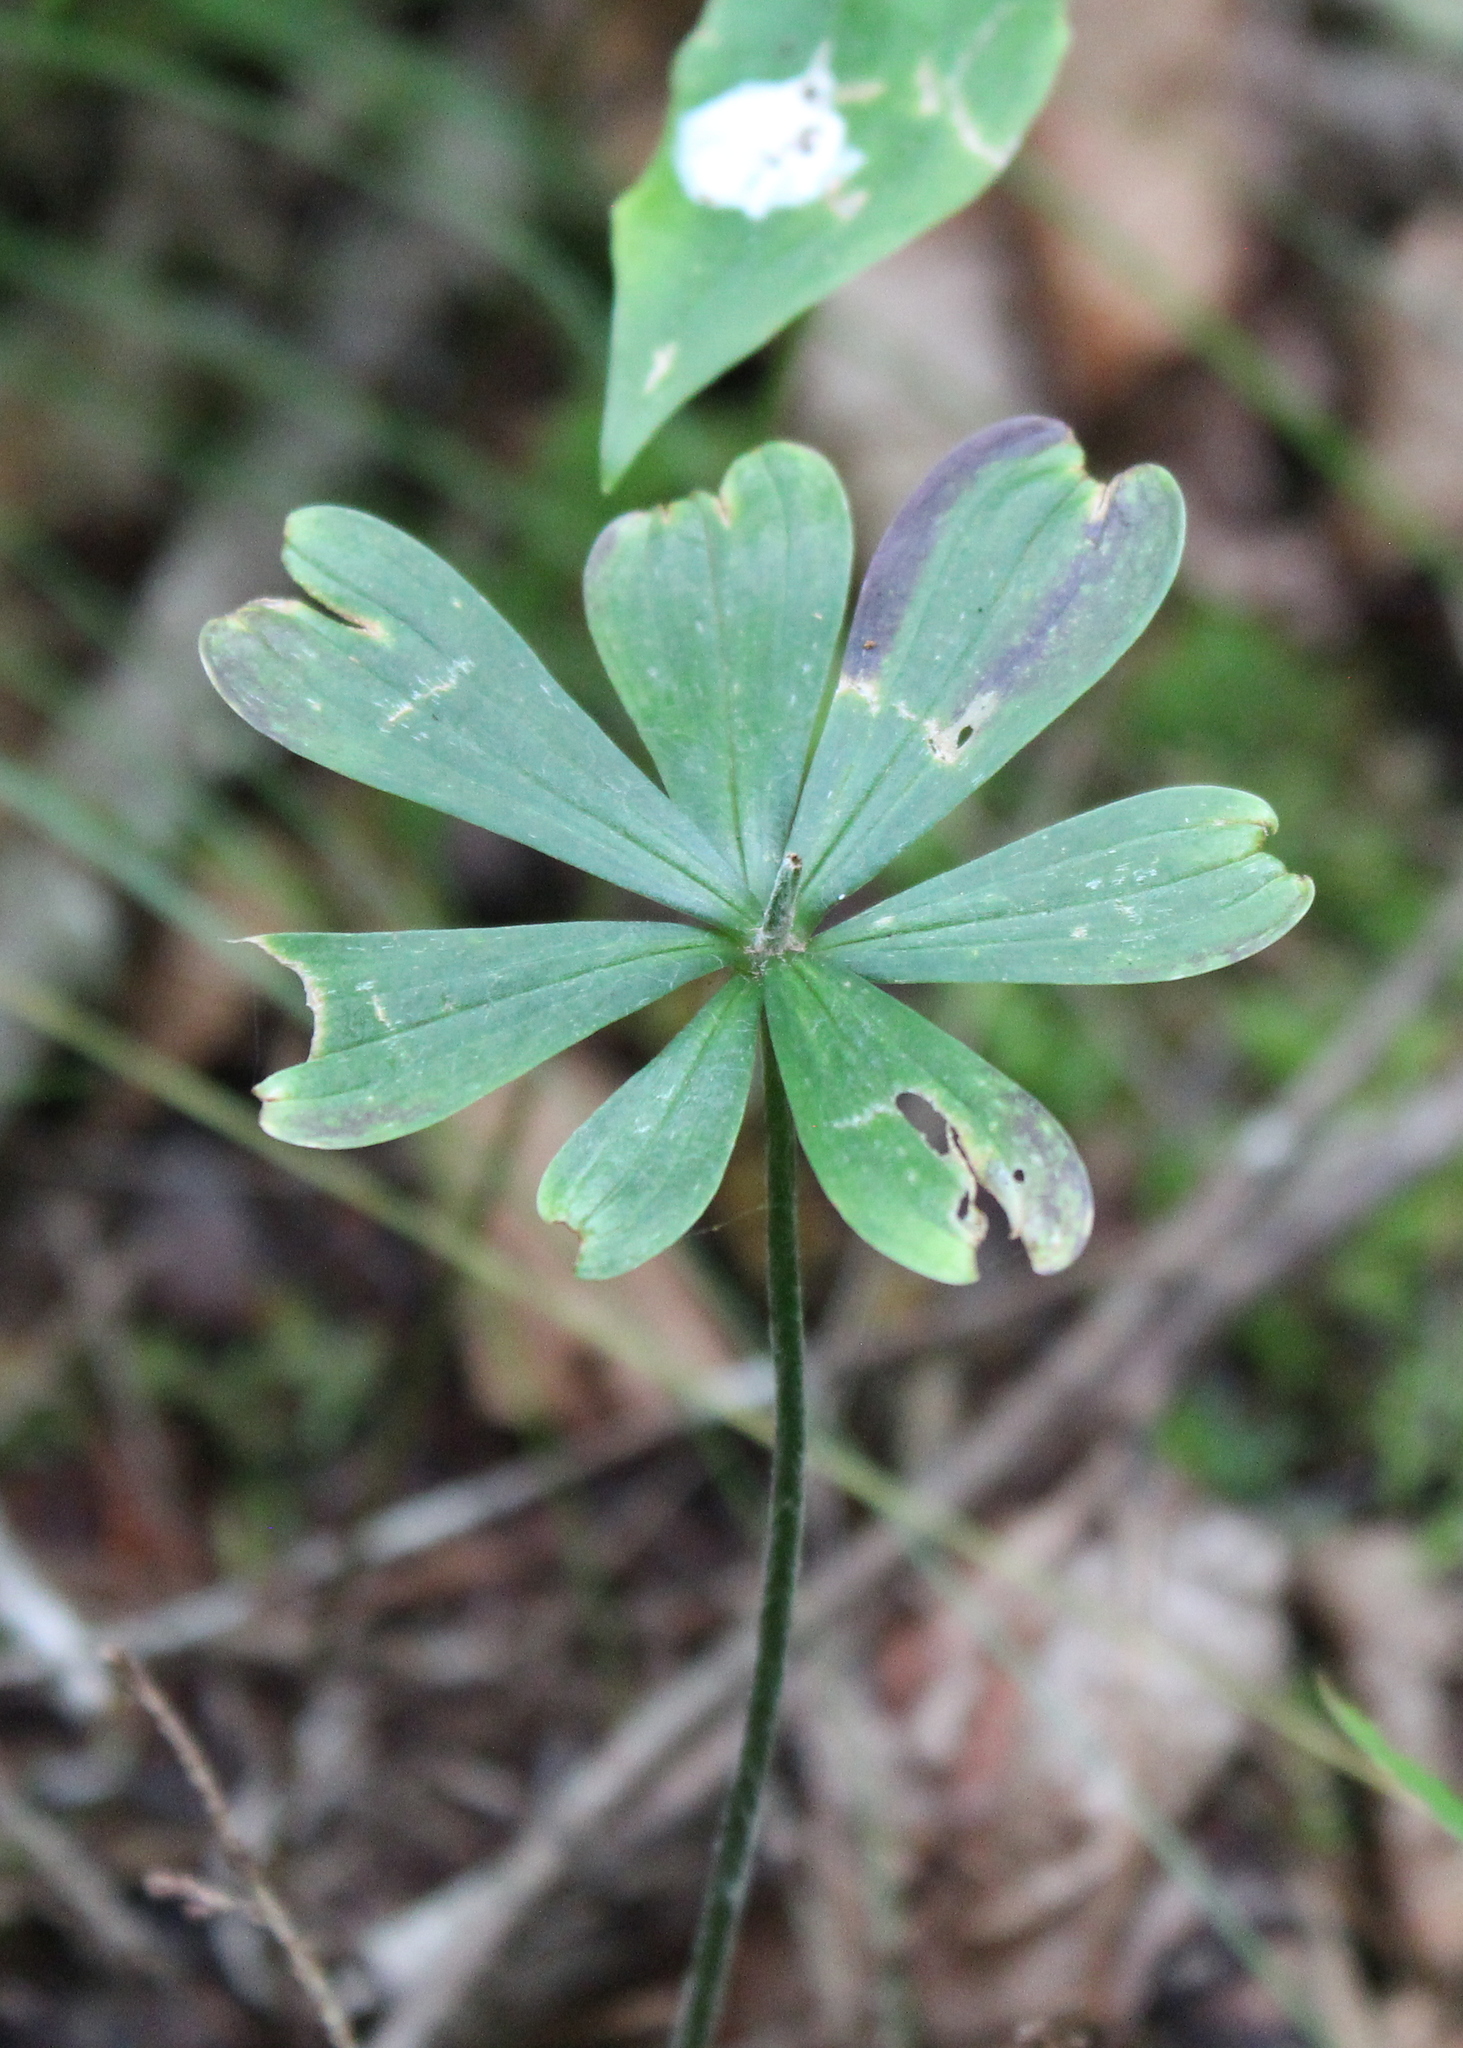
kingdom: Plantae
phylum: Tracheophyta
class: Liliopsida
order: Liliales
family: Liliaceae
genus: Medeola
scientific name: Medeola virginiana
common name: Indian cucumber-root
